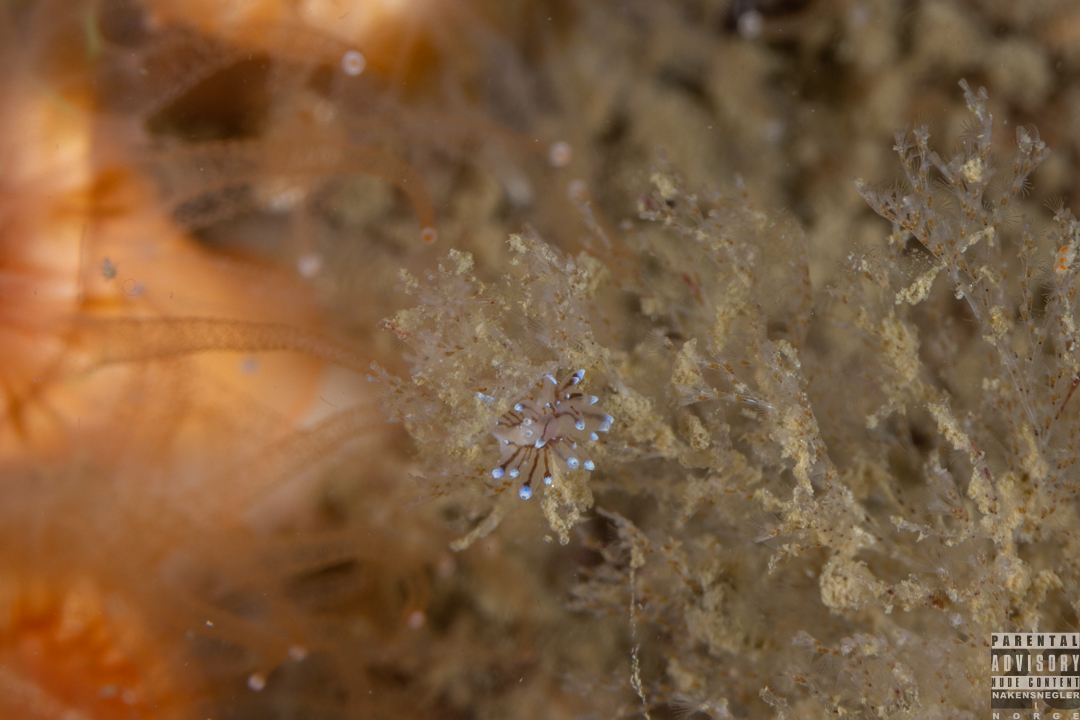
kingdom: Animalia
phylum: Mollusca
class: Gastropoda
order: Nudibranchia
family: Janolidae
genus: Antiopella
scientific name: Antiopella cristata
